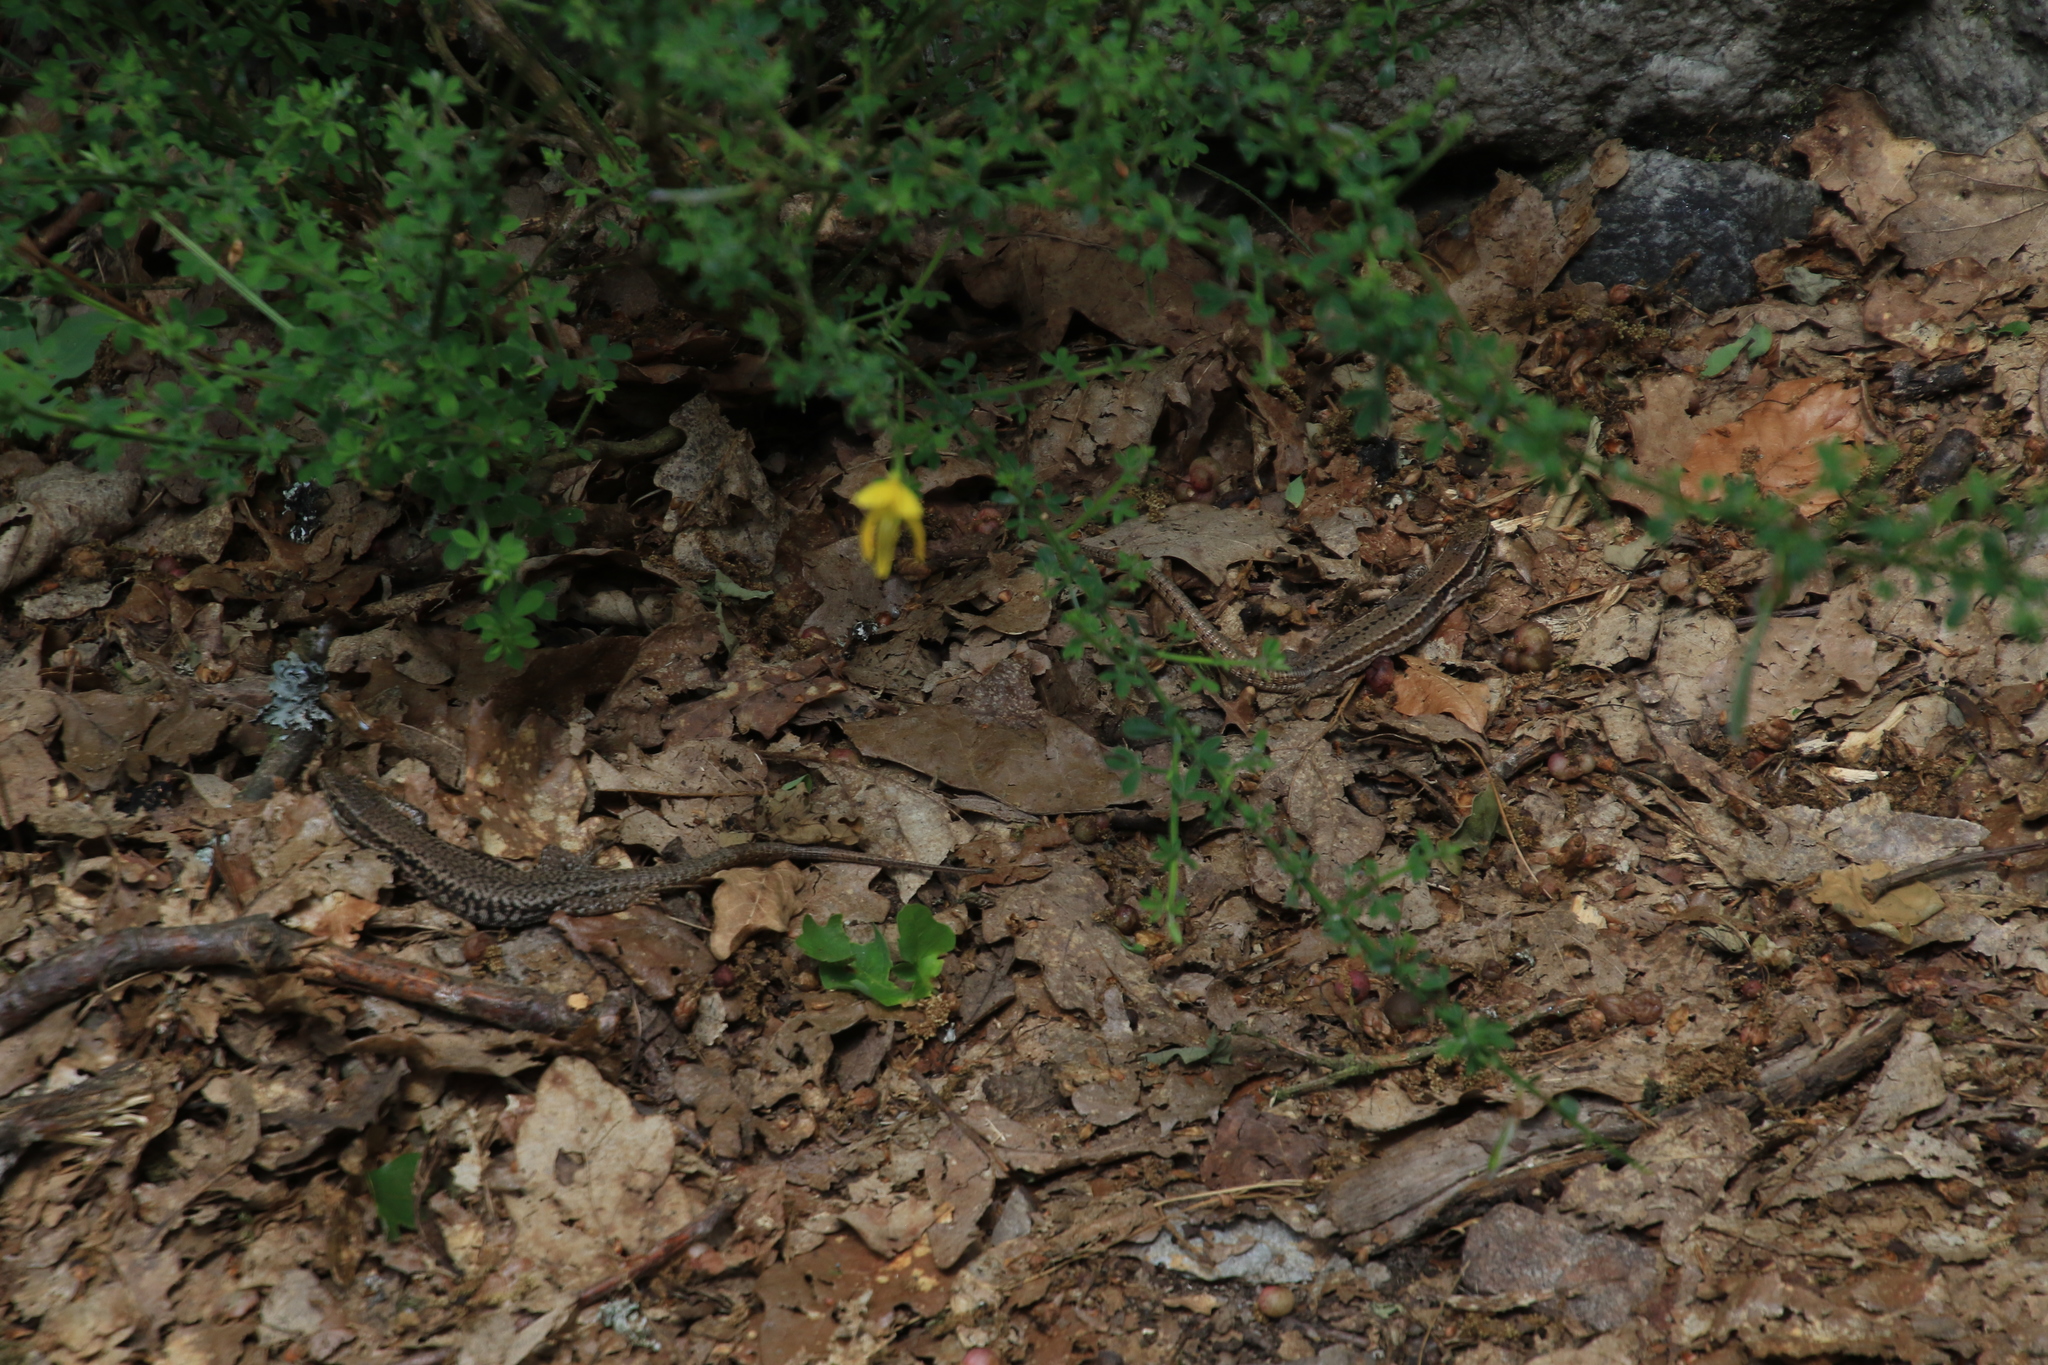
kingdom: Animalia
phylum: Chordata
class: Squamata
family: Lacertidae
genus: Podarcis
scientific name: Podarcis muralis
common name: Common wall lizard
